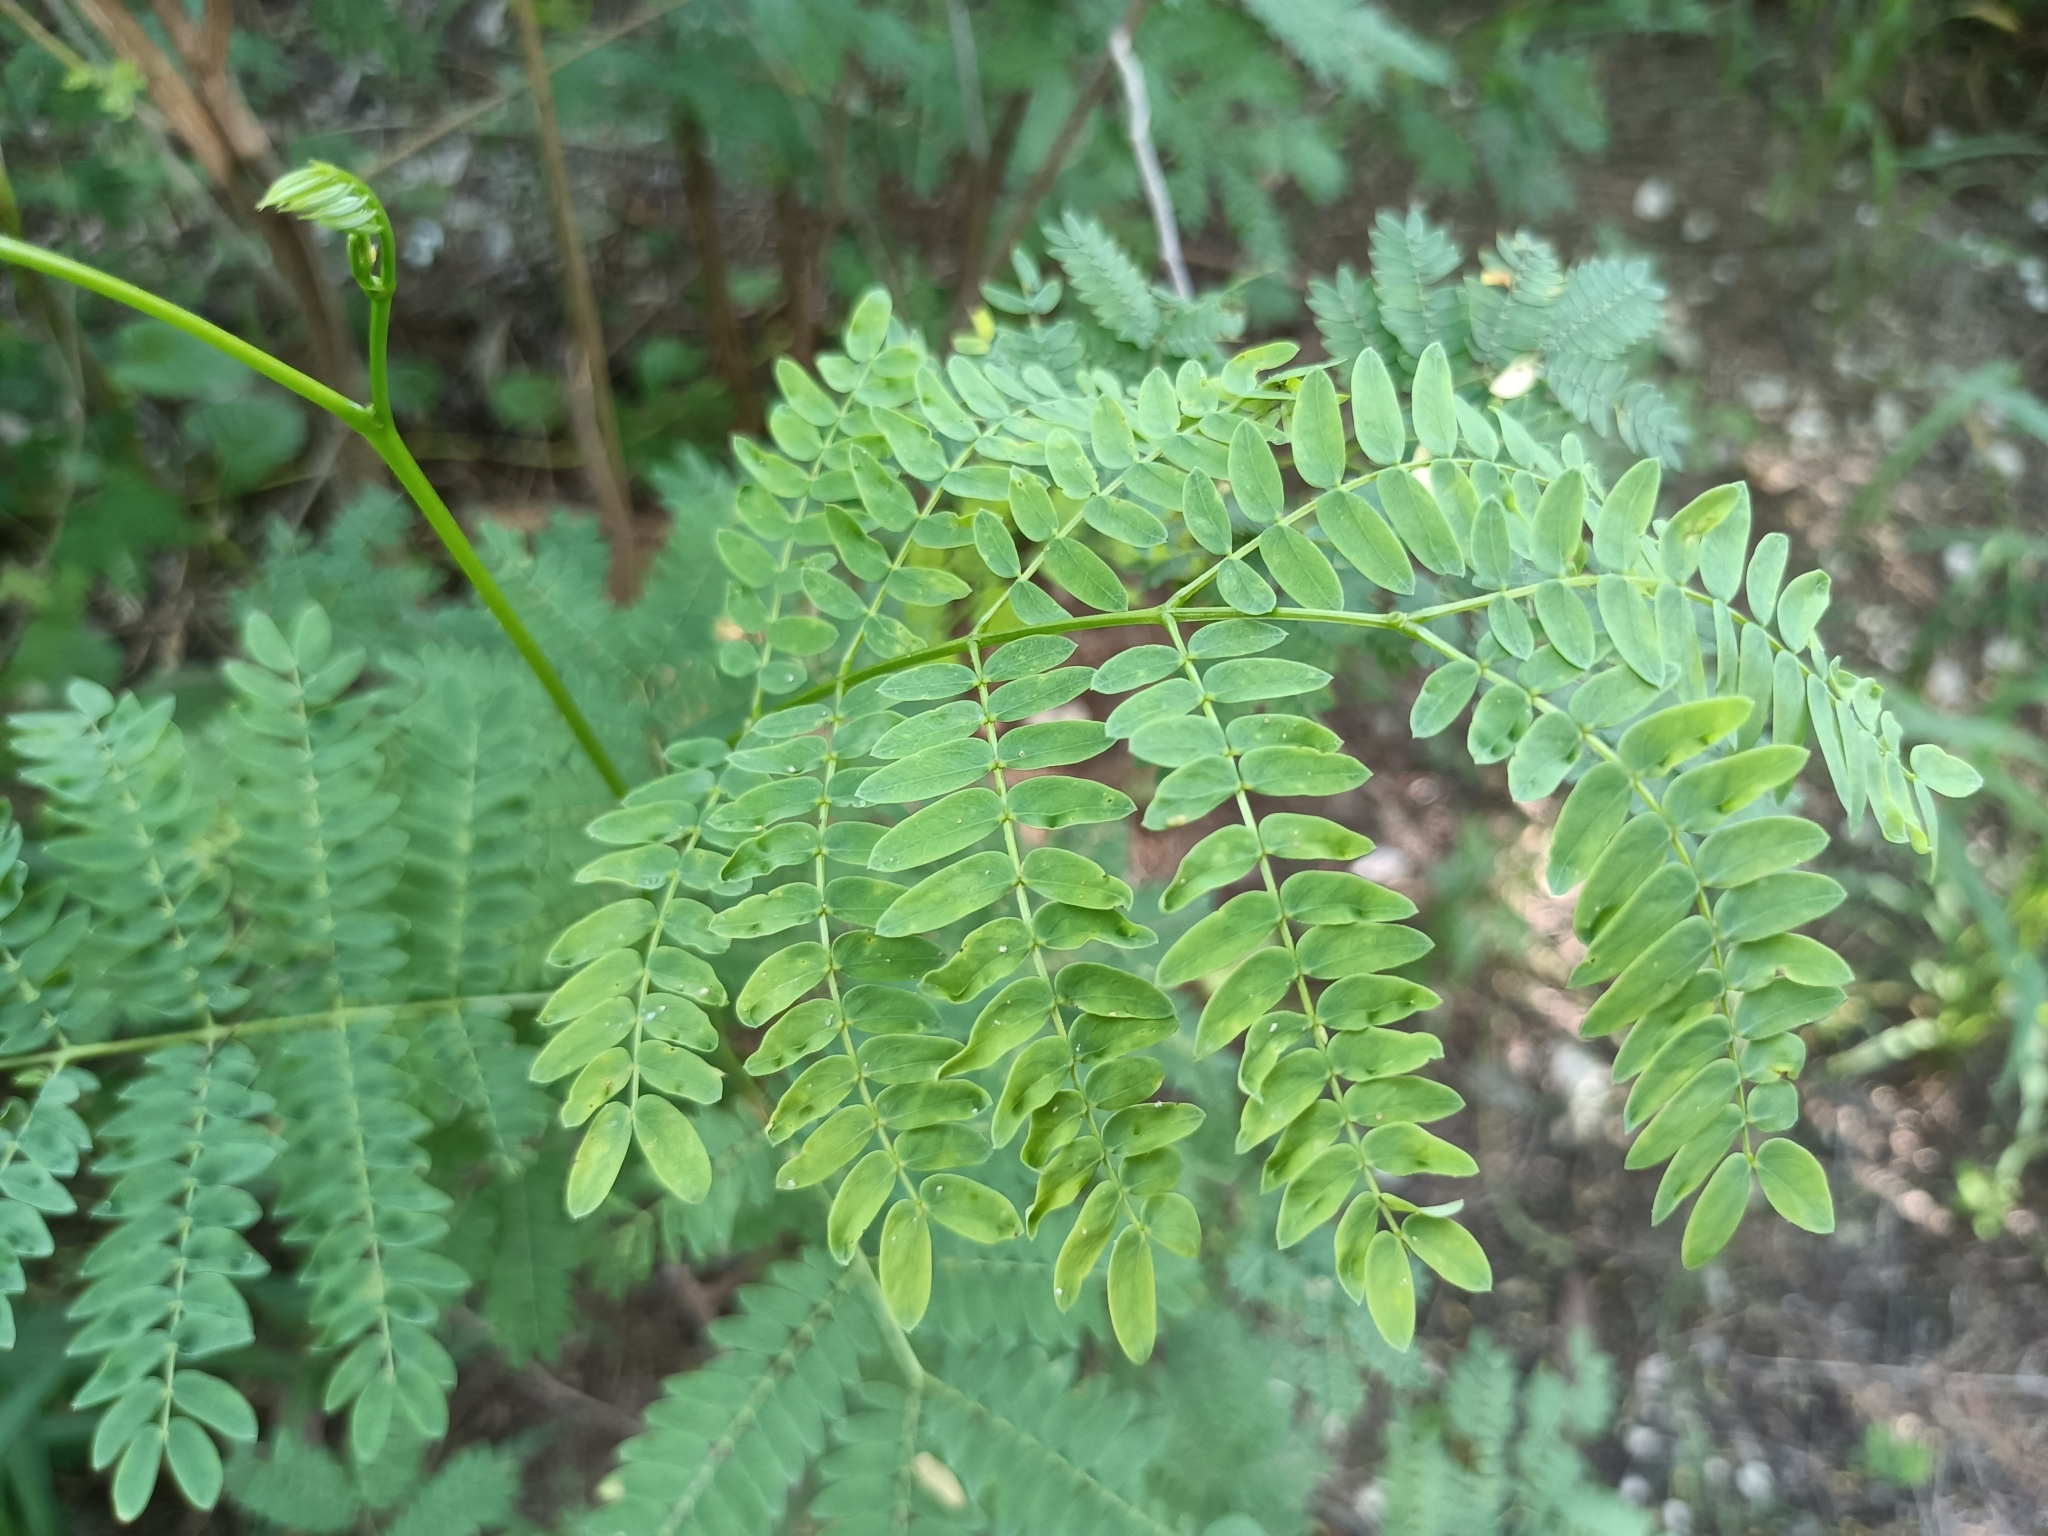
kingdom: Plantae
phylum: Tracheophyta
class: Magnoliopsida
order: Fabales
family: Fabaceae
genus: Leucaena
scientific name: Leucaena leucocephala
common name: White leadtree
